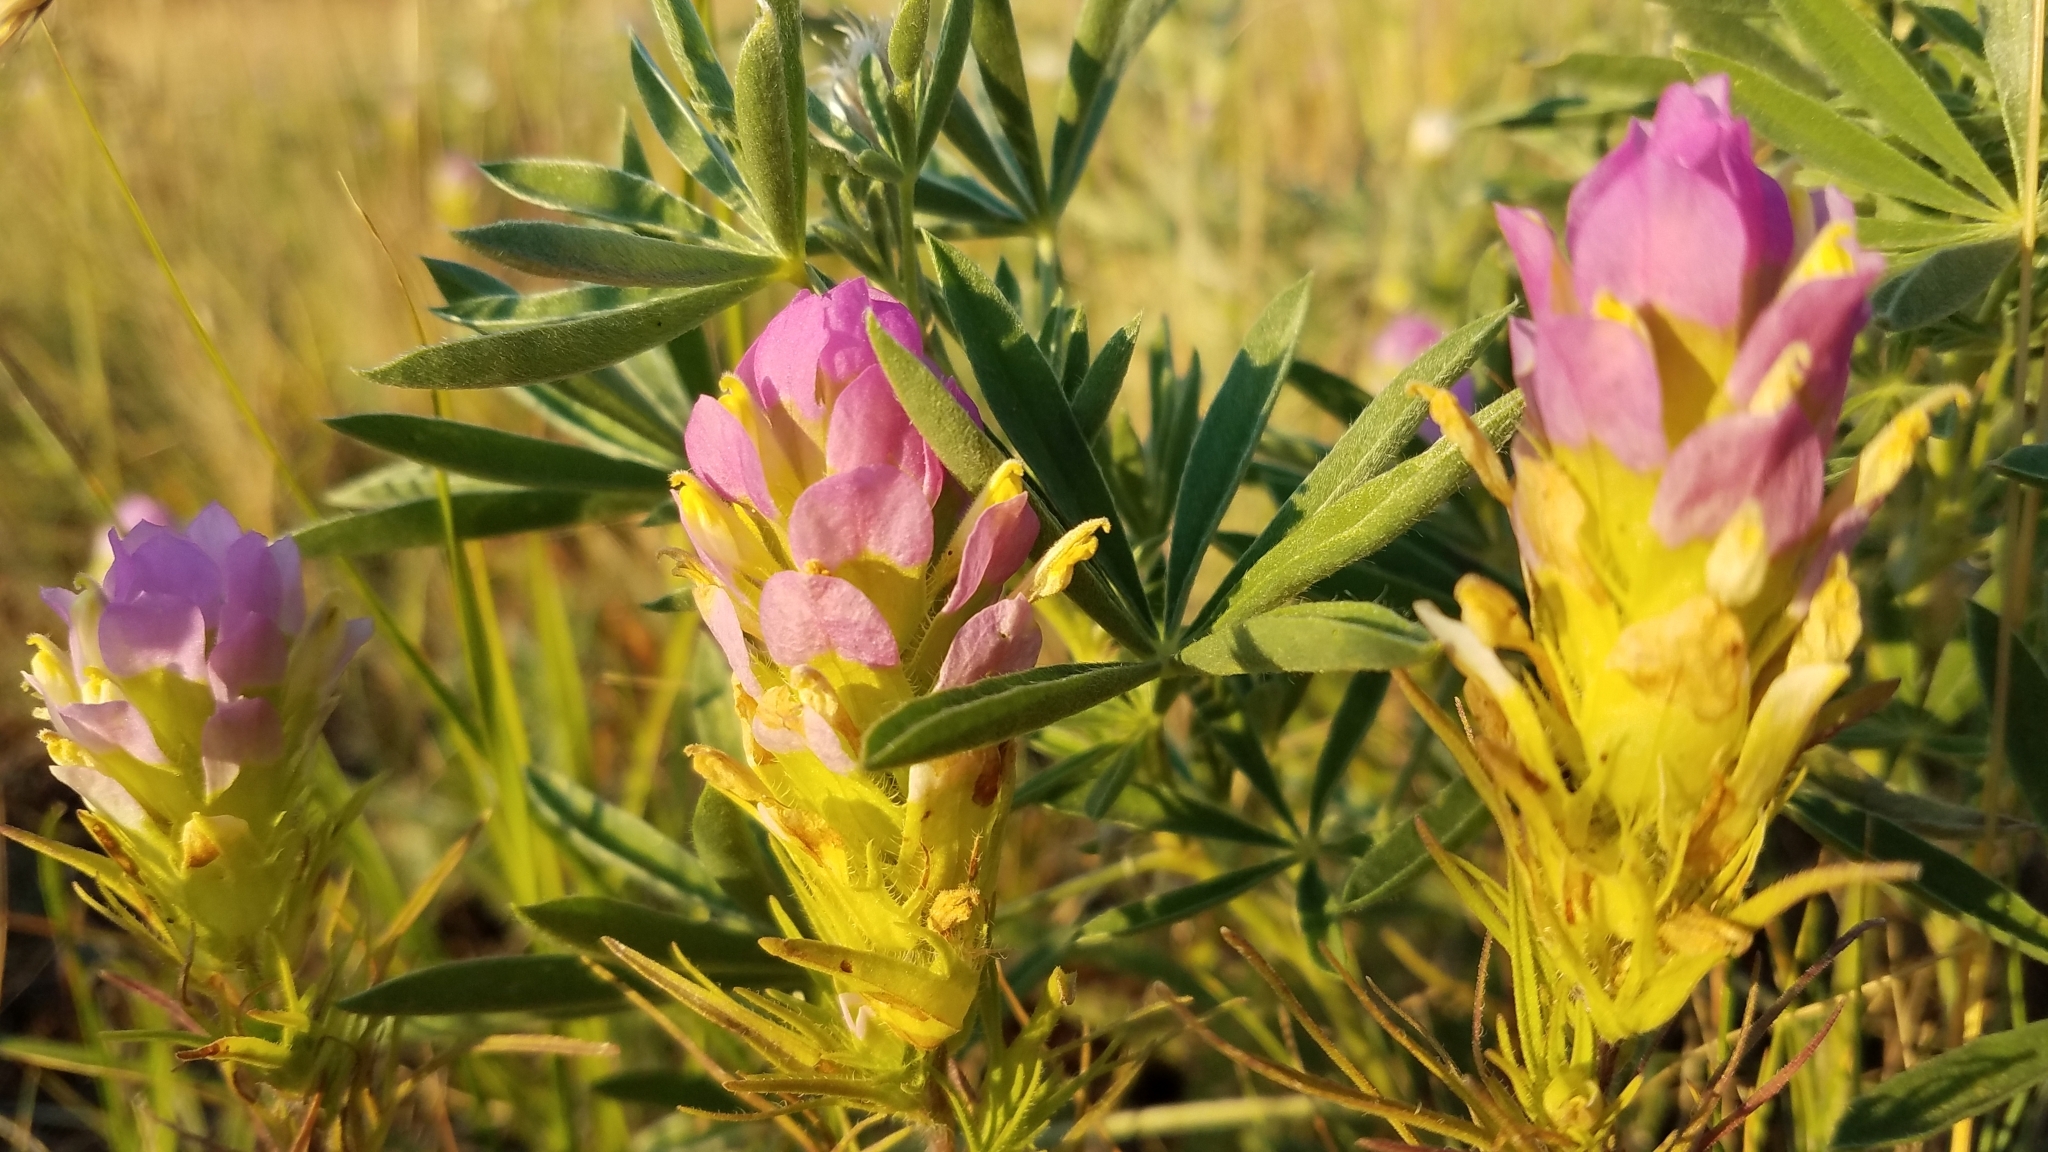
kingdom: Plantae
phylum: Tracheophyta
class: Magnoliopsida
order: Lamiales
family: Orobanchaceae
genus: Orthocarpus
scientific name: Orthocarpus tenuifolius
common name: Thin-leaved owl's-clover
